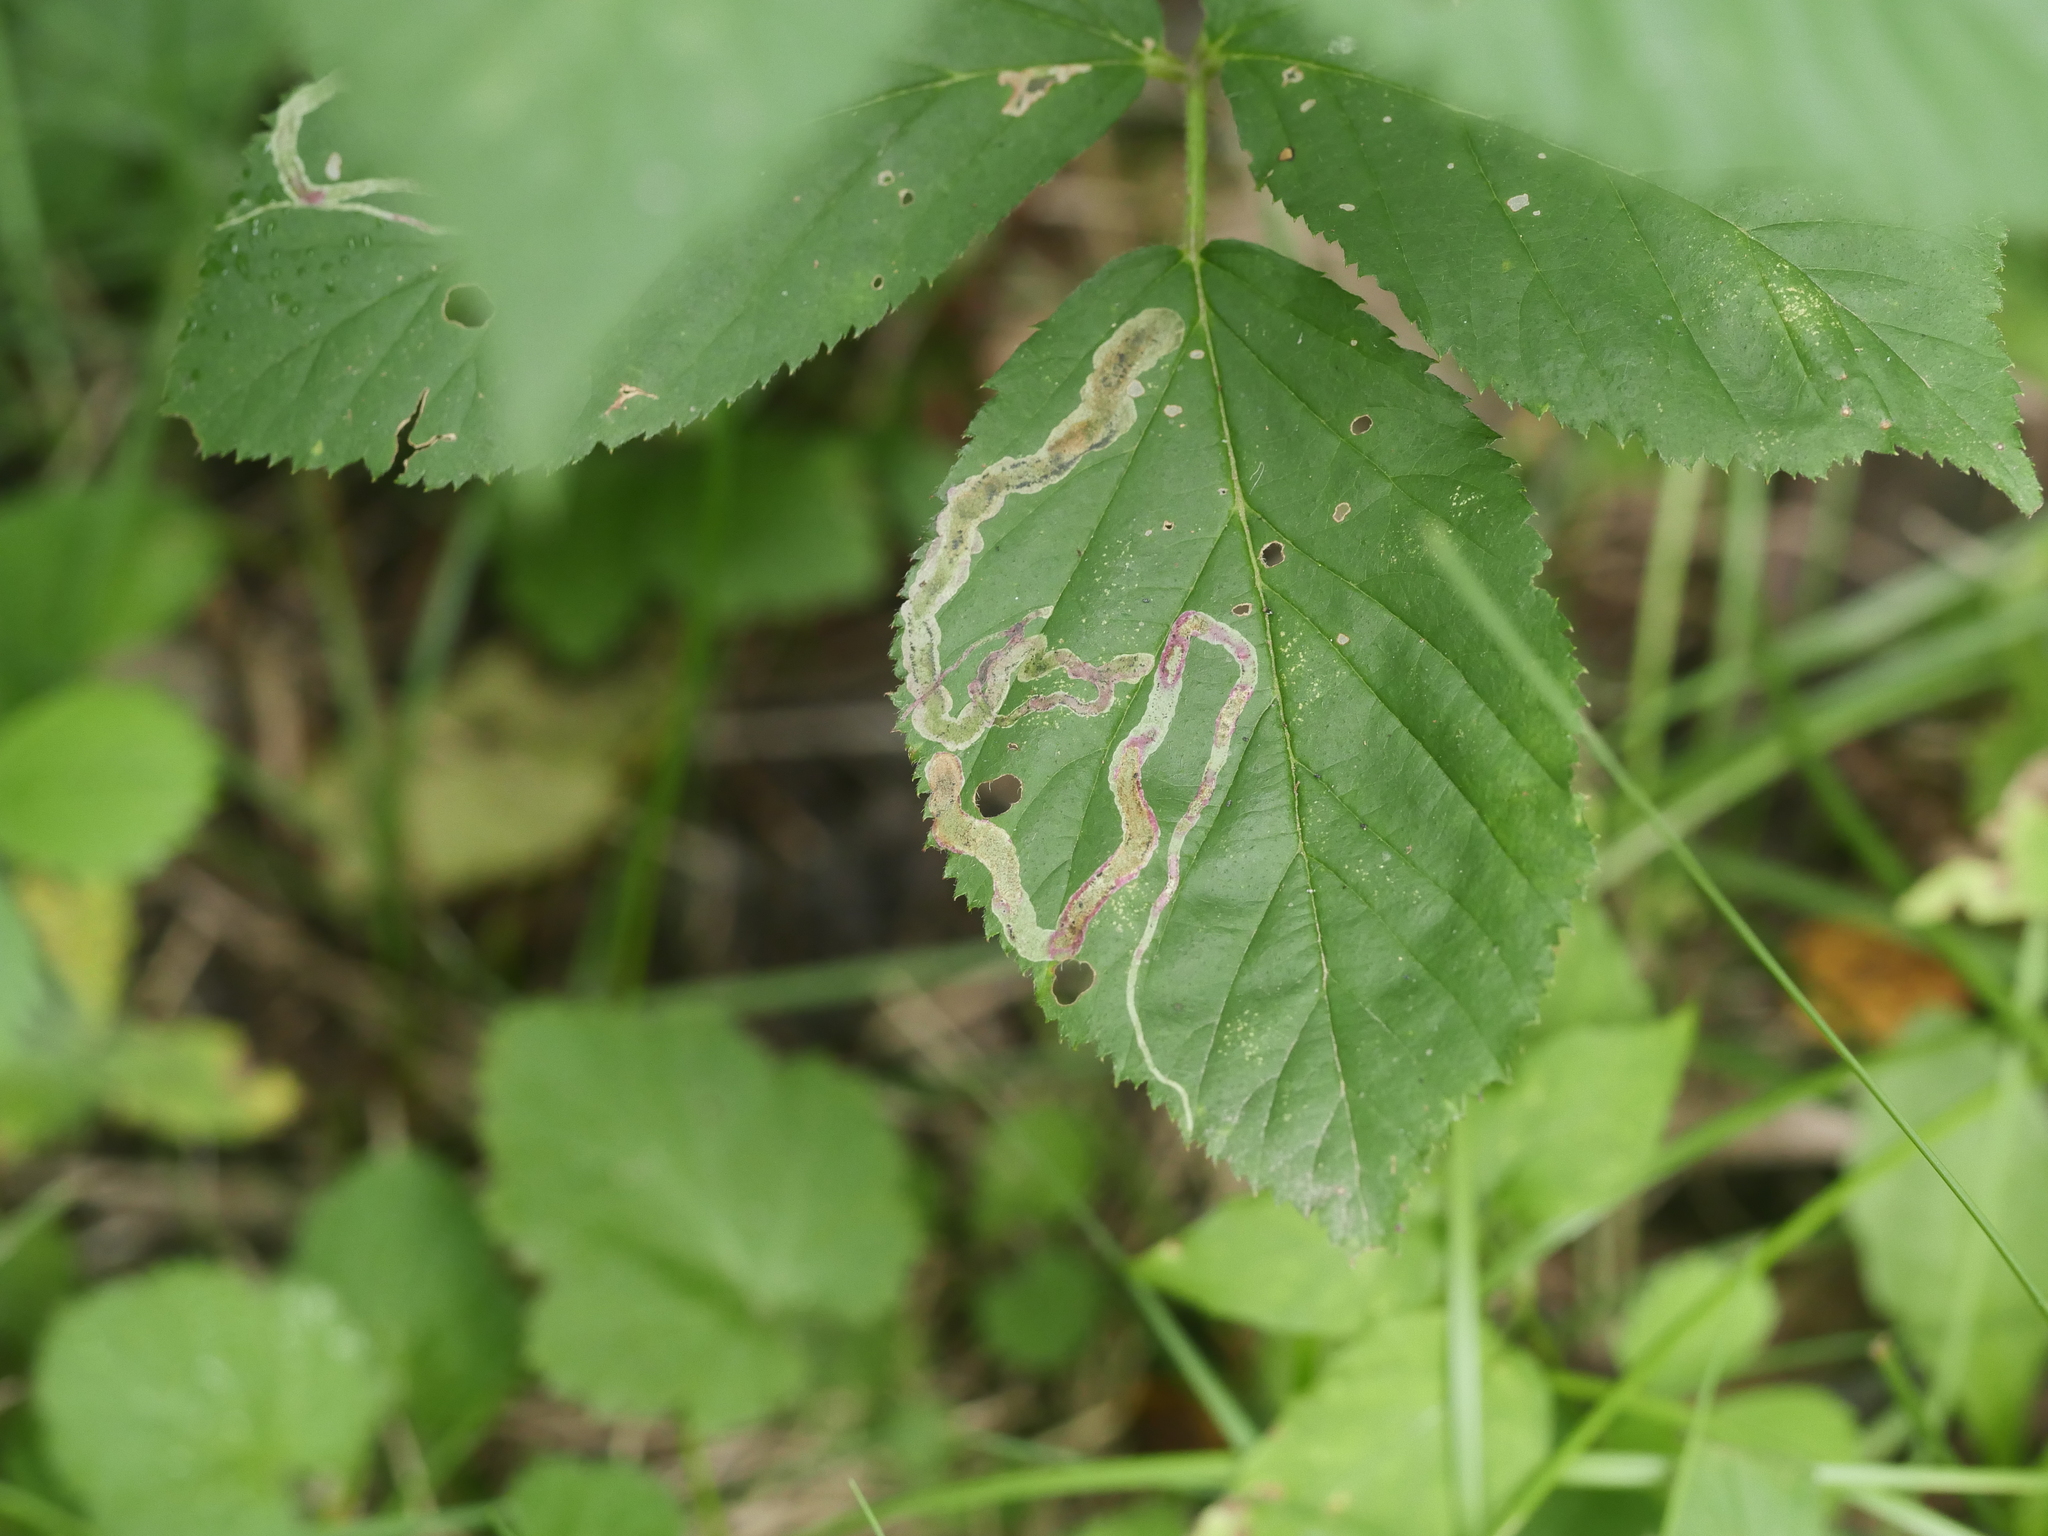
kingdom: Animalia
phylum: Arthropoda
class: Insecta
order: Diptera
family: Agromyzidae
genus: Agromyza
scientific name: Agromyza vockerothi
